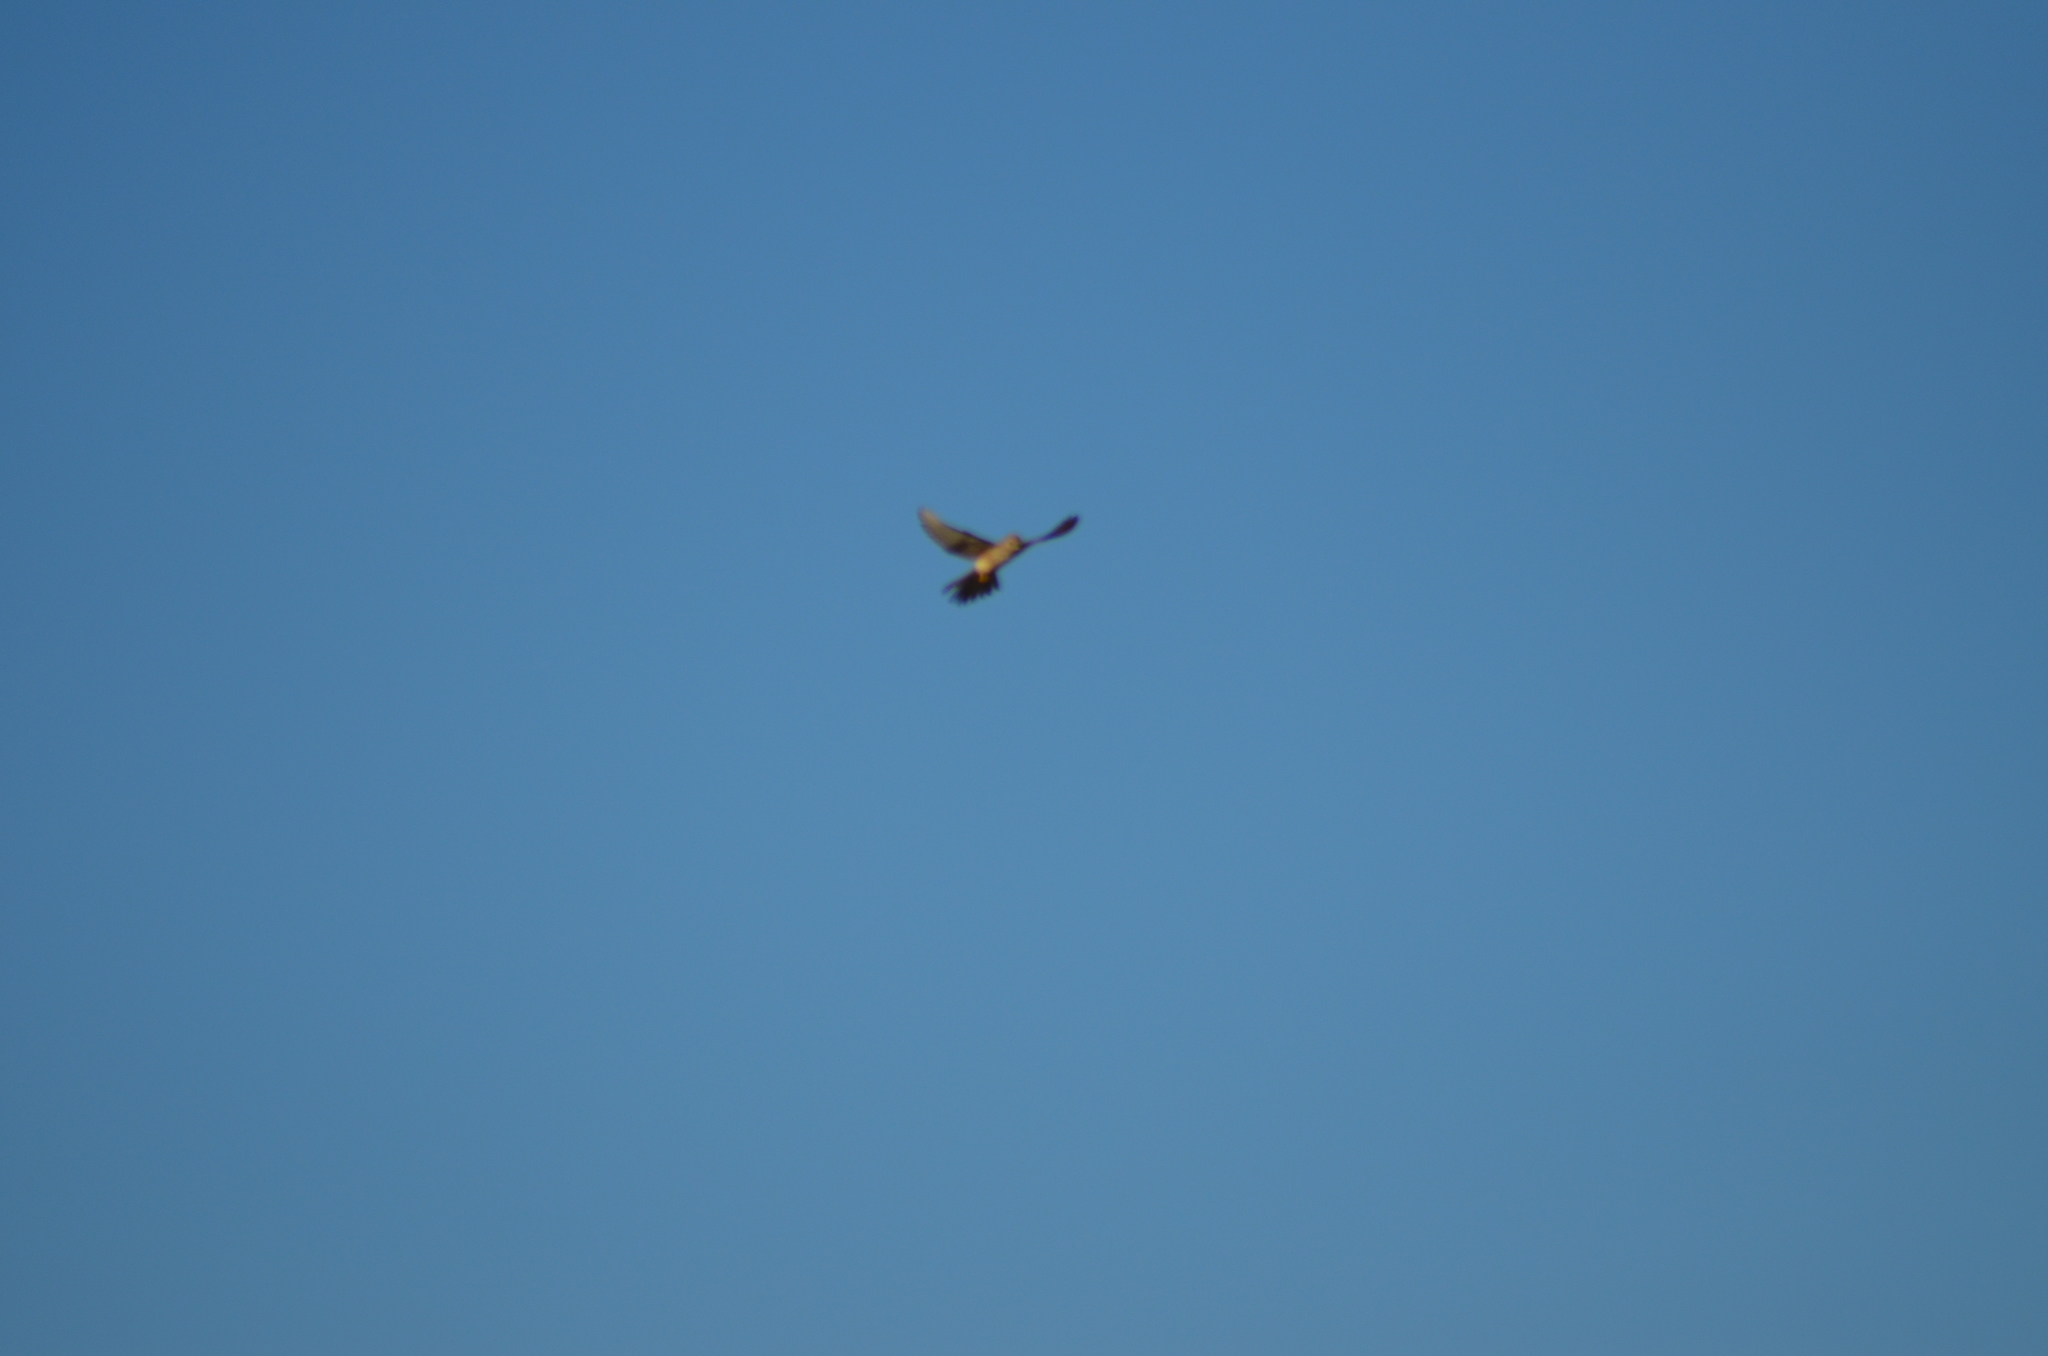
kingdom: Animalia
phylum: Chordata
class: Aves
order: Falconiformes
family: Falconidae
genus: Falco
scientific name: Falco tinnunculus
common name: Common kestrel
